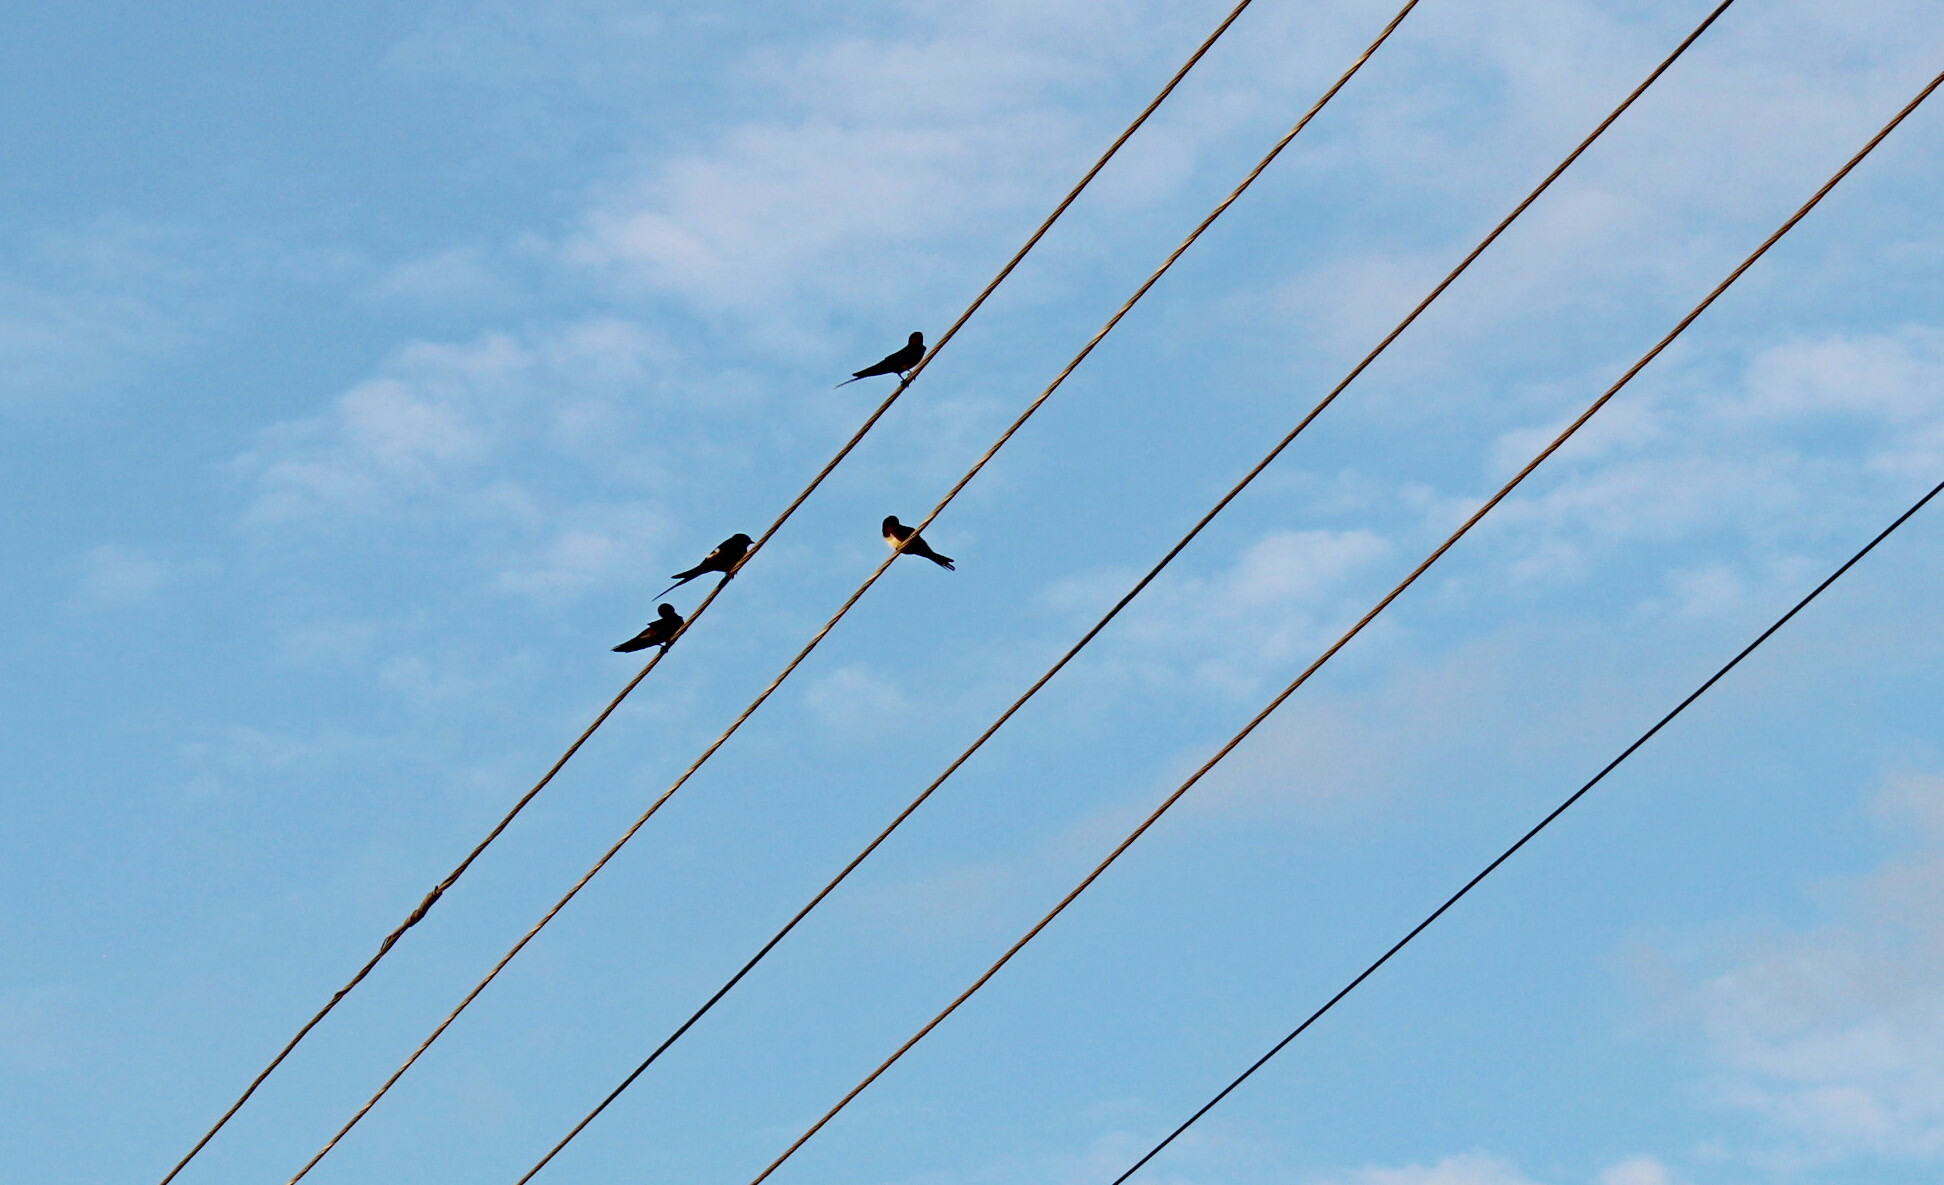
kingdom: Animalia
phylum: Chordata
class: Aves
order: Passeriformes
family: Hirundinidae
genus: Hirundo
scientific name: Hirundo rustica
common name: Barn swallow
